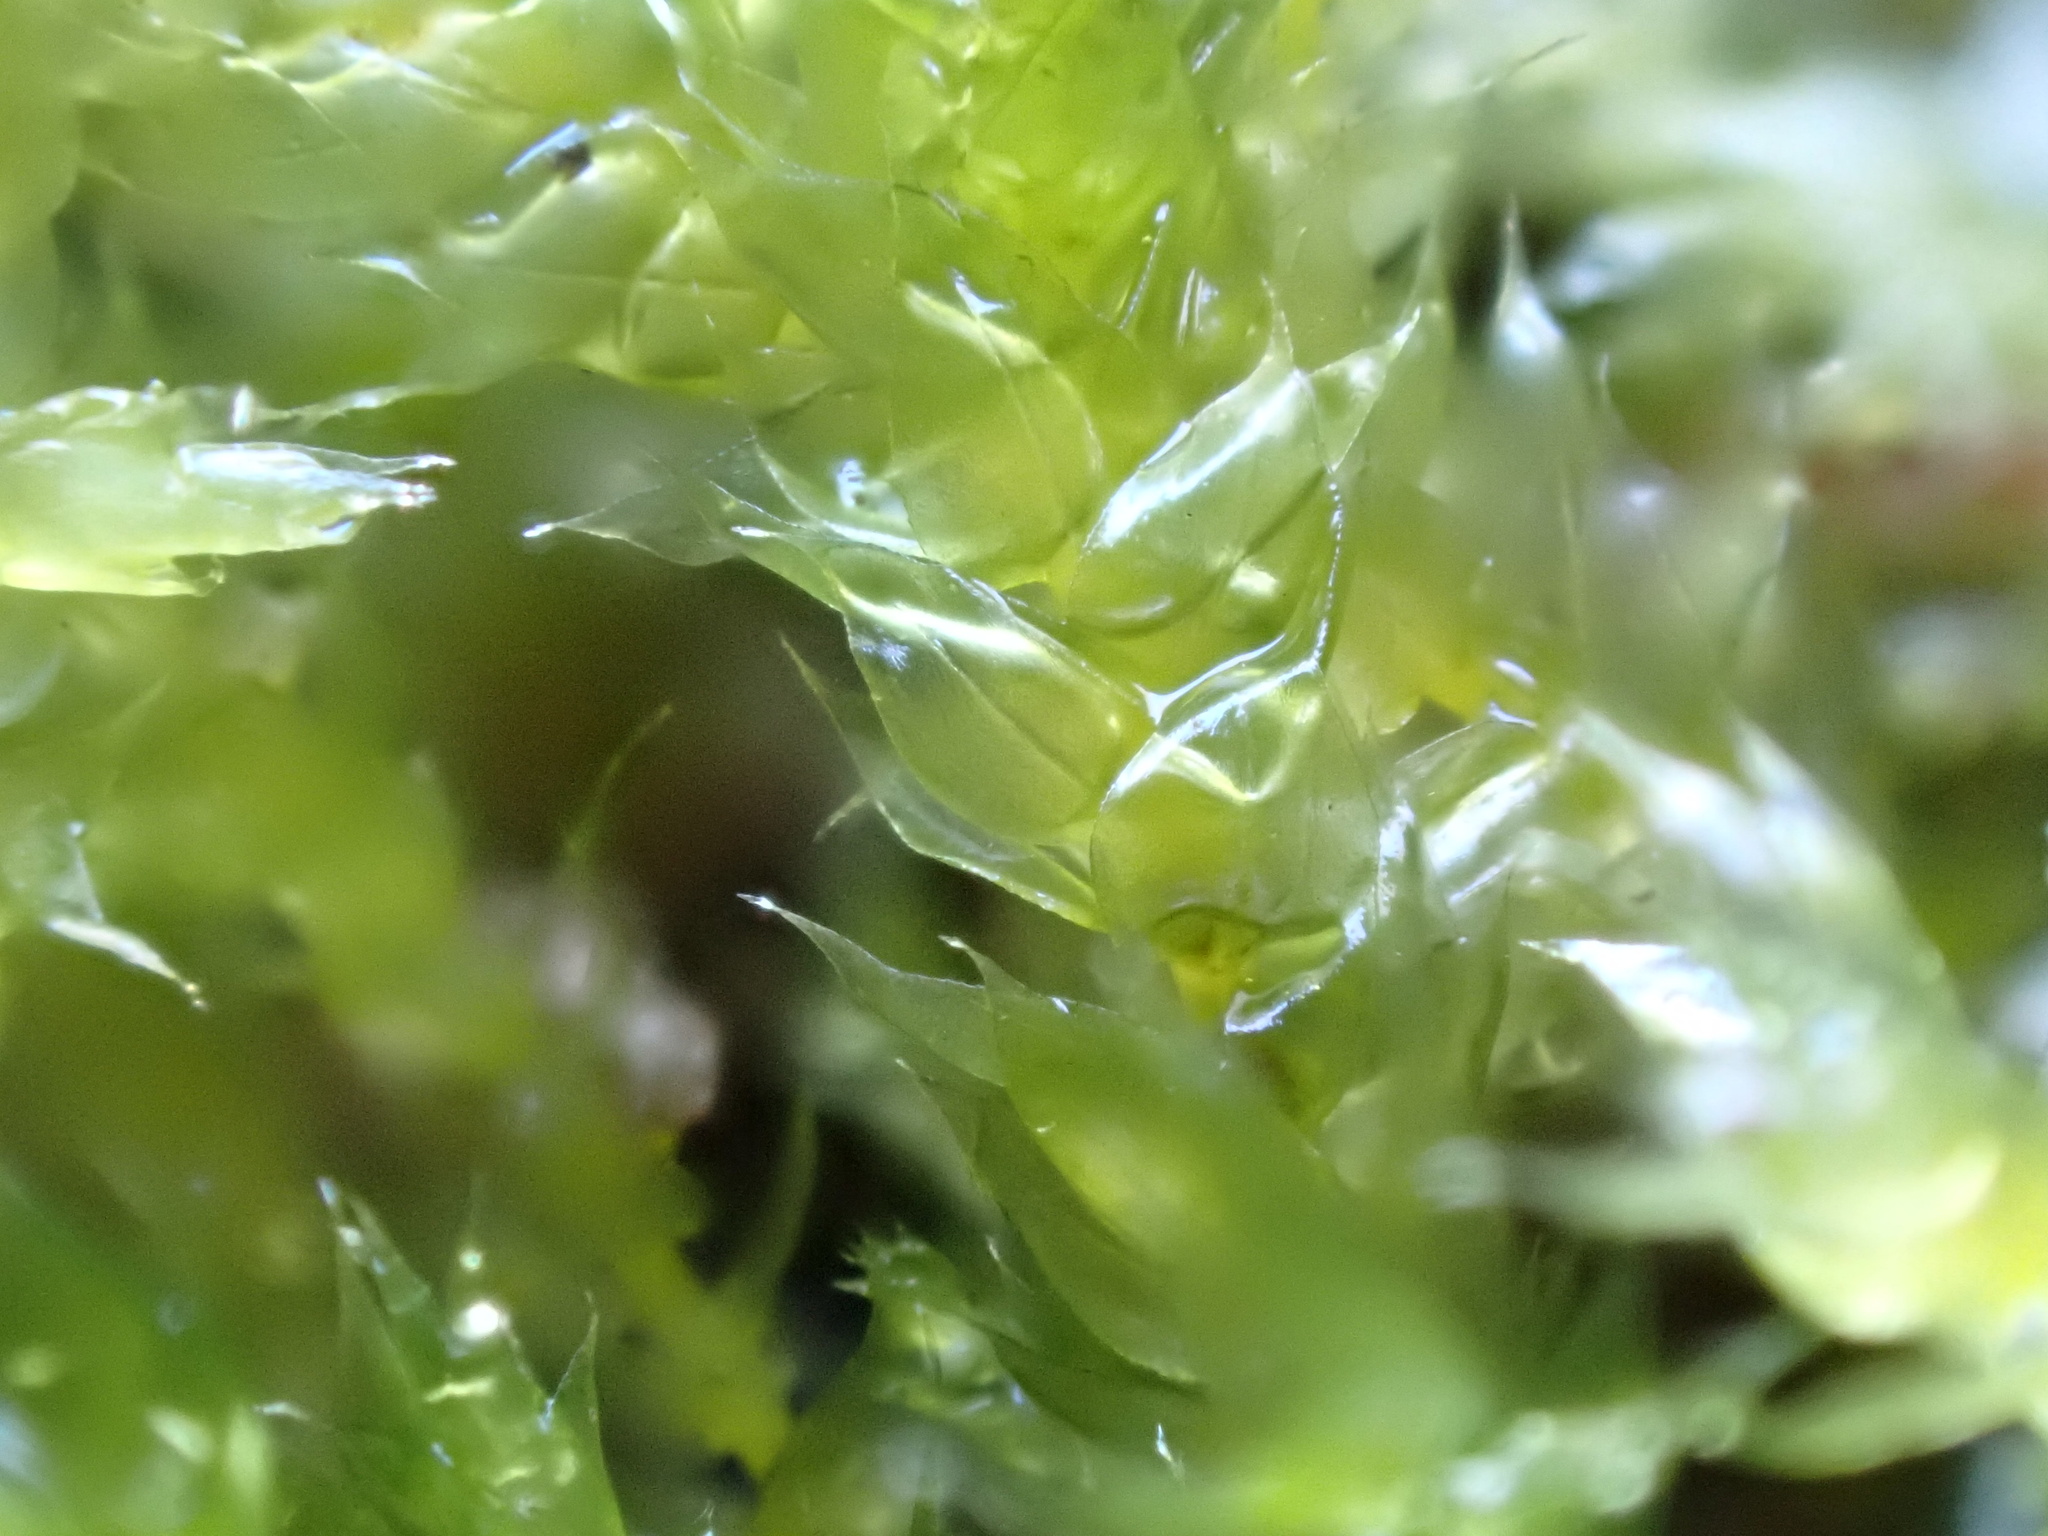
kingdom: Plantae
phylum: Bryophyta
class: Bryopsida
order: Hypnales
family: Brachytheciaceae
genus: Rhynchostegium
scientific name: Rhynchostegium megapolitanum
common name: Megapolitan feather-moss
